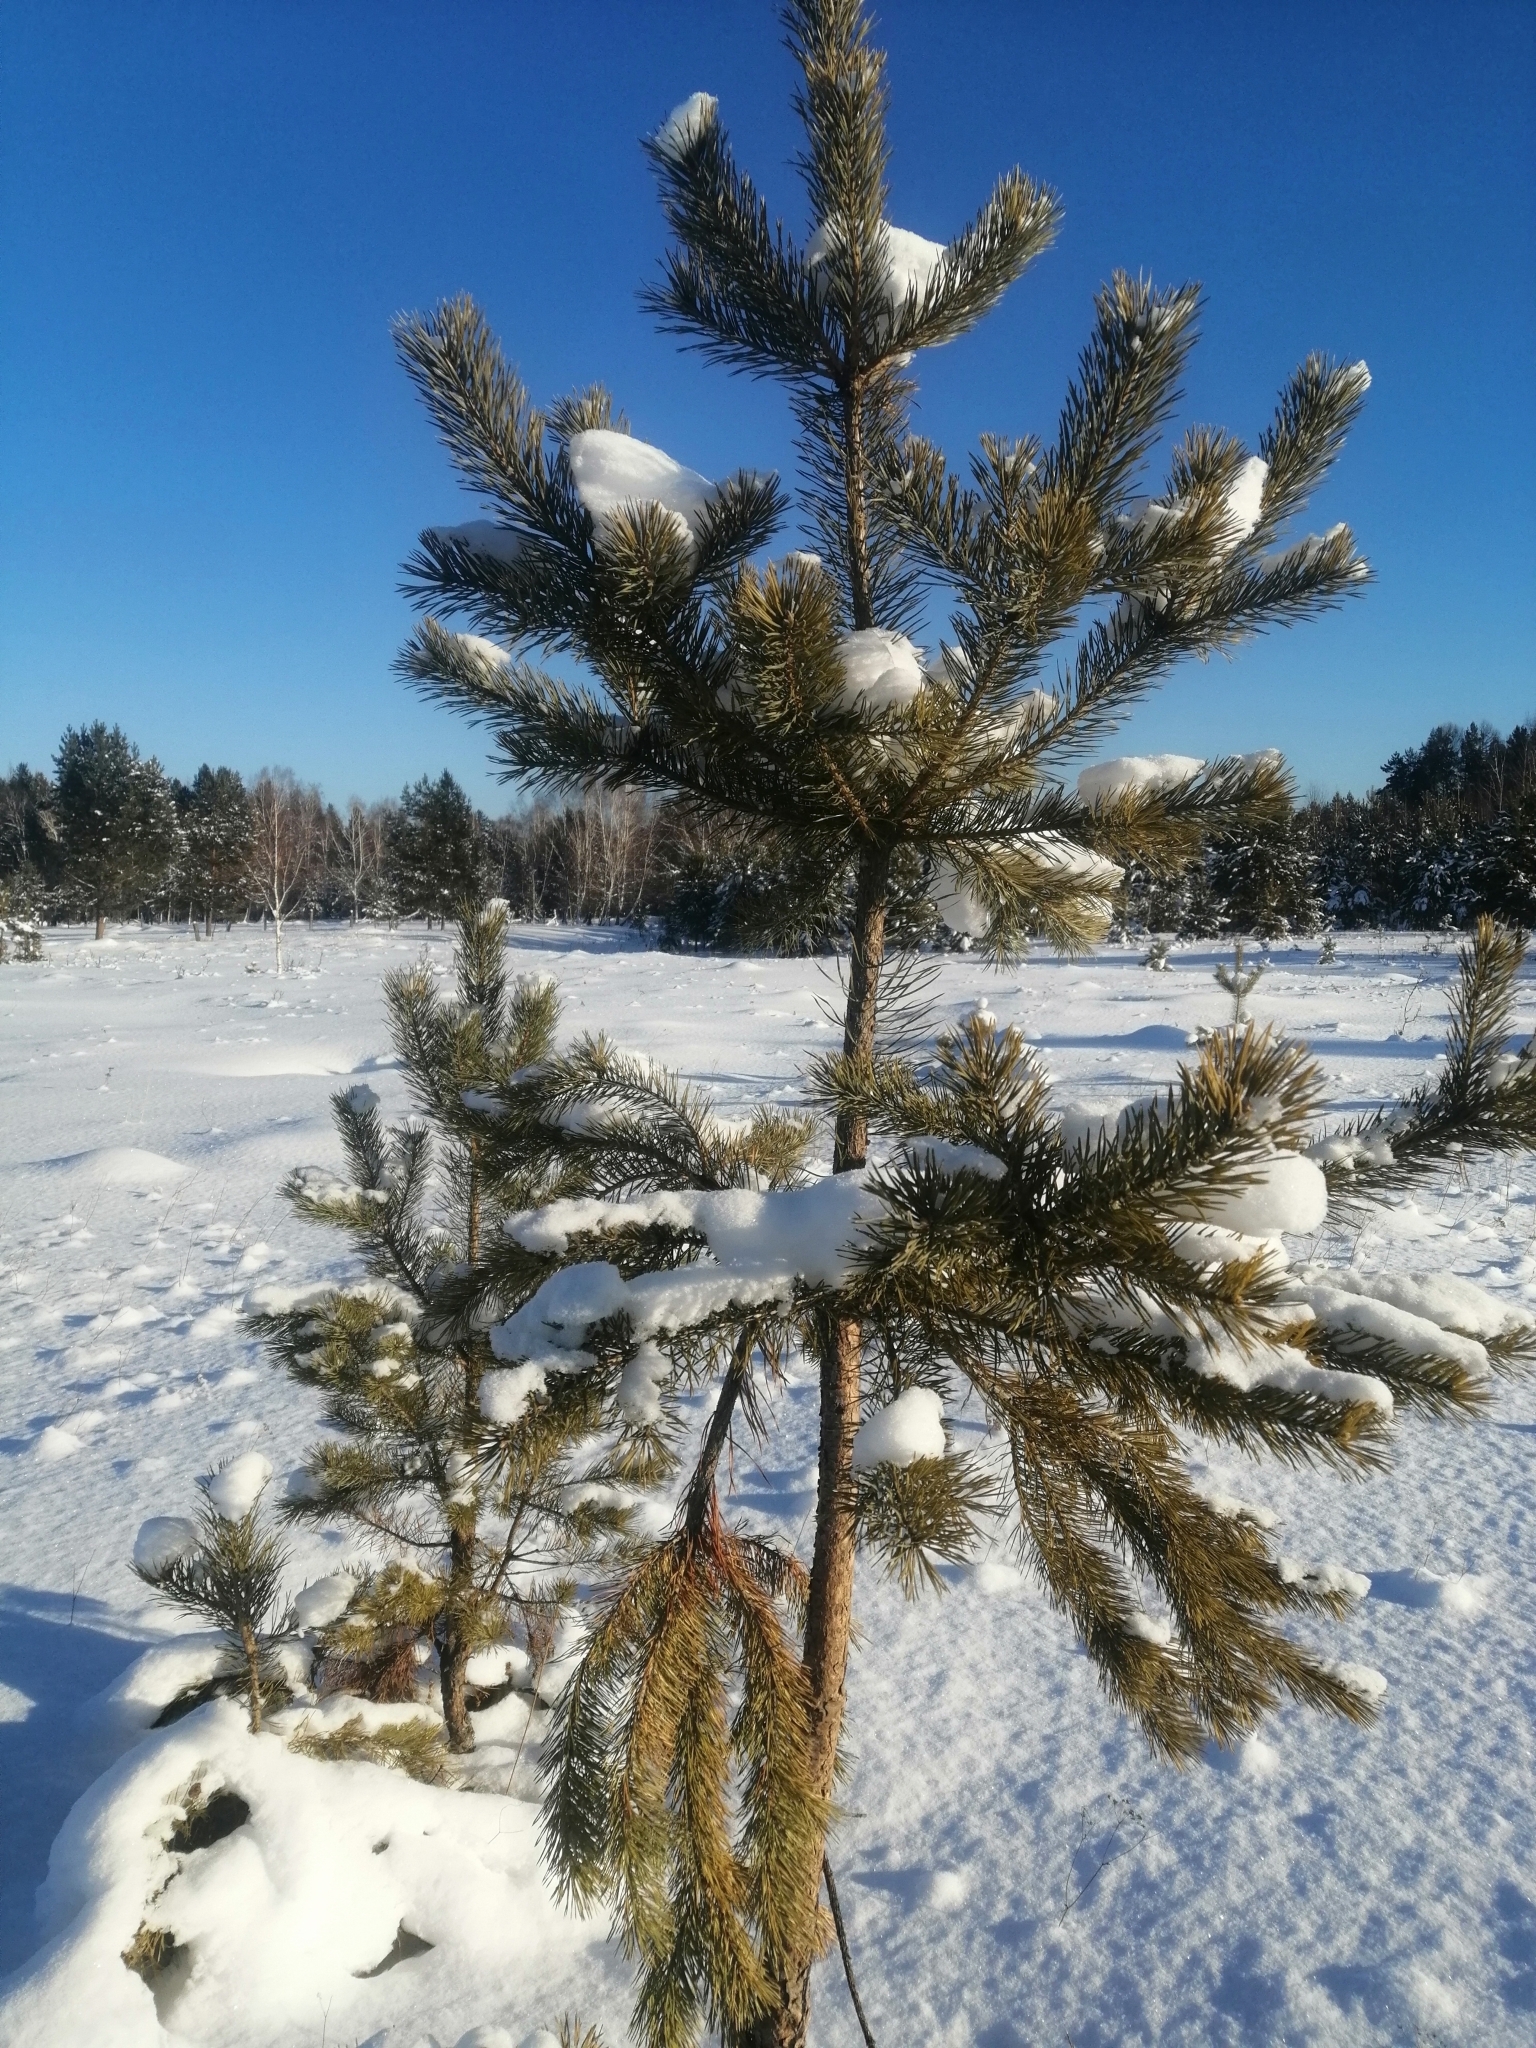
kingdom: Plantae
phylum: Tracheophyta
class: Pinopsida
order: Pinales
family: Pinaceae
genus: Pinus
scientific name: Pinus sylvestris
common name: Scots pine
